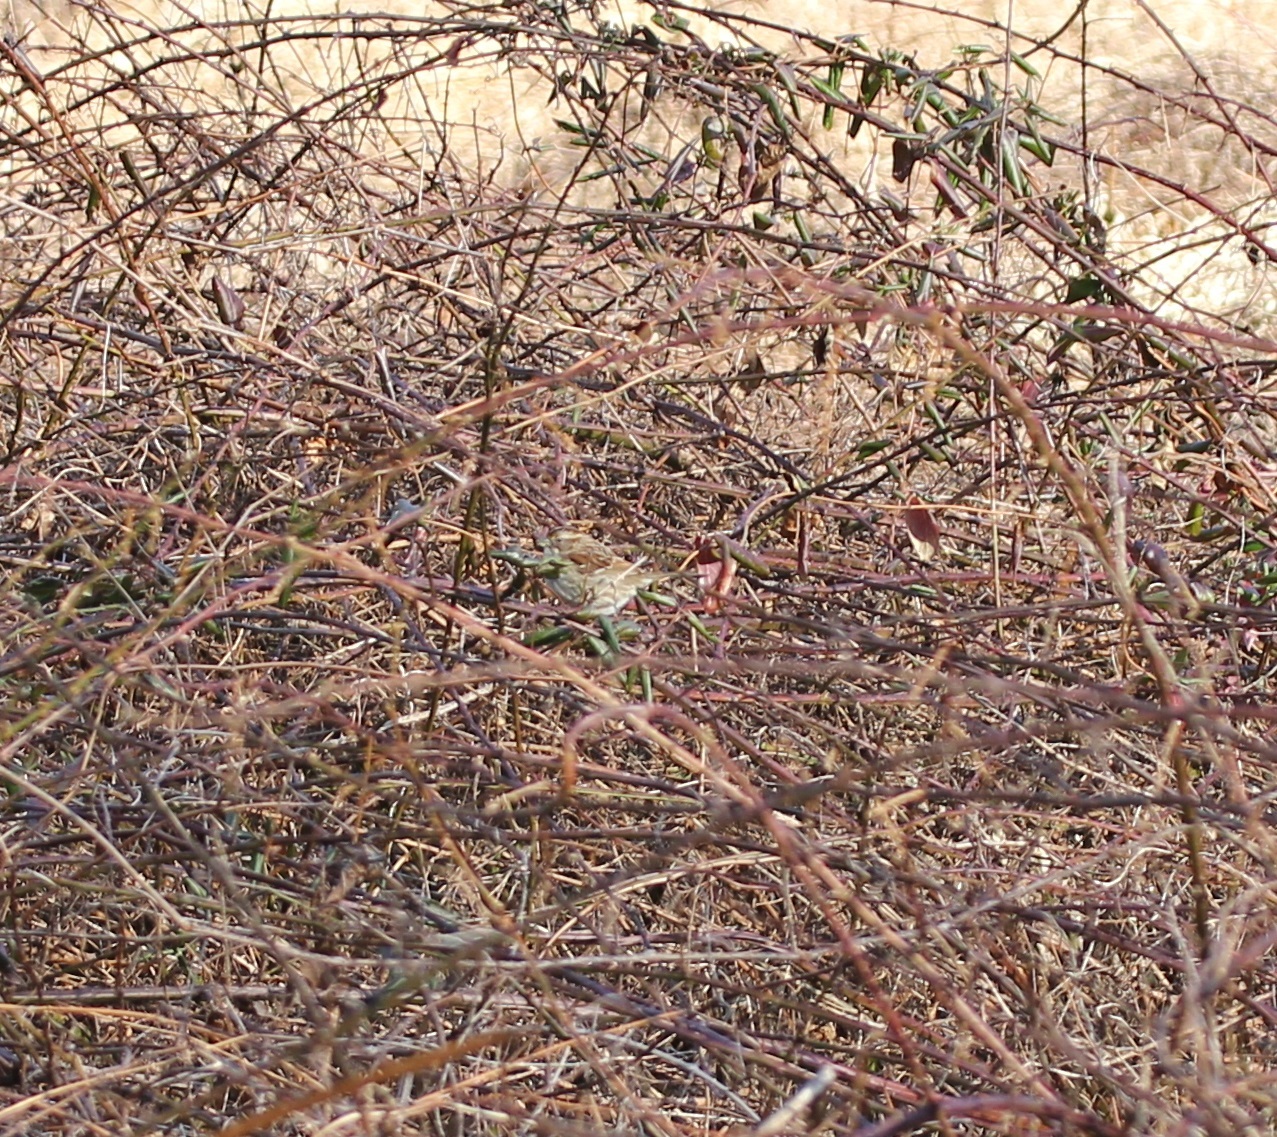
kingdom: Animalia
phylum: Chordata
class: Aves
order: Passeriformes
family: Passerellidae
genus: Zonotrichia
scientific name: Zonotrichia albicollis
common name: White-throated sparrow
